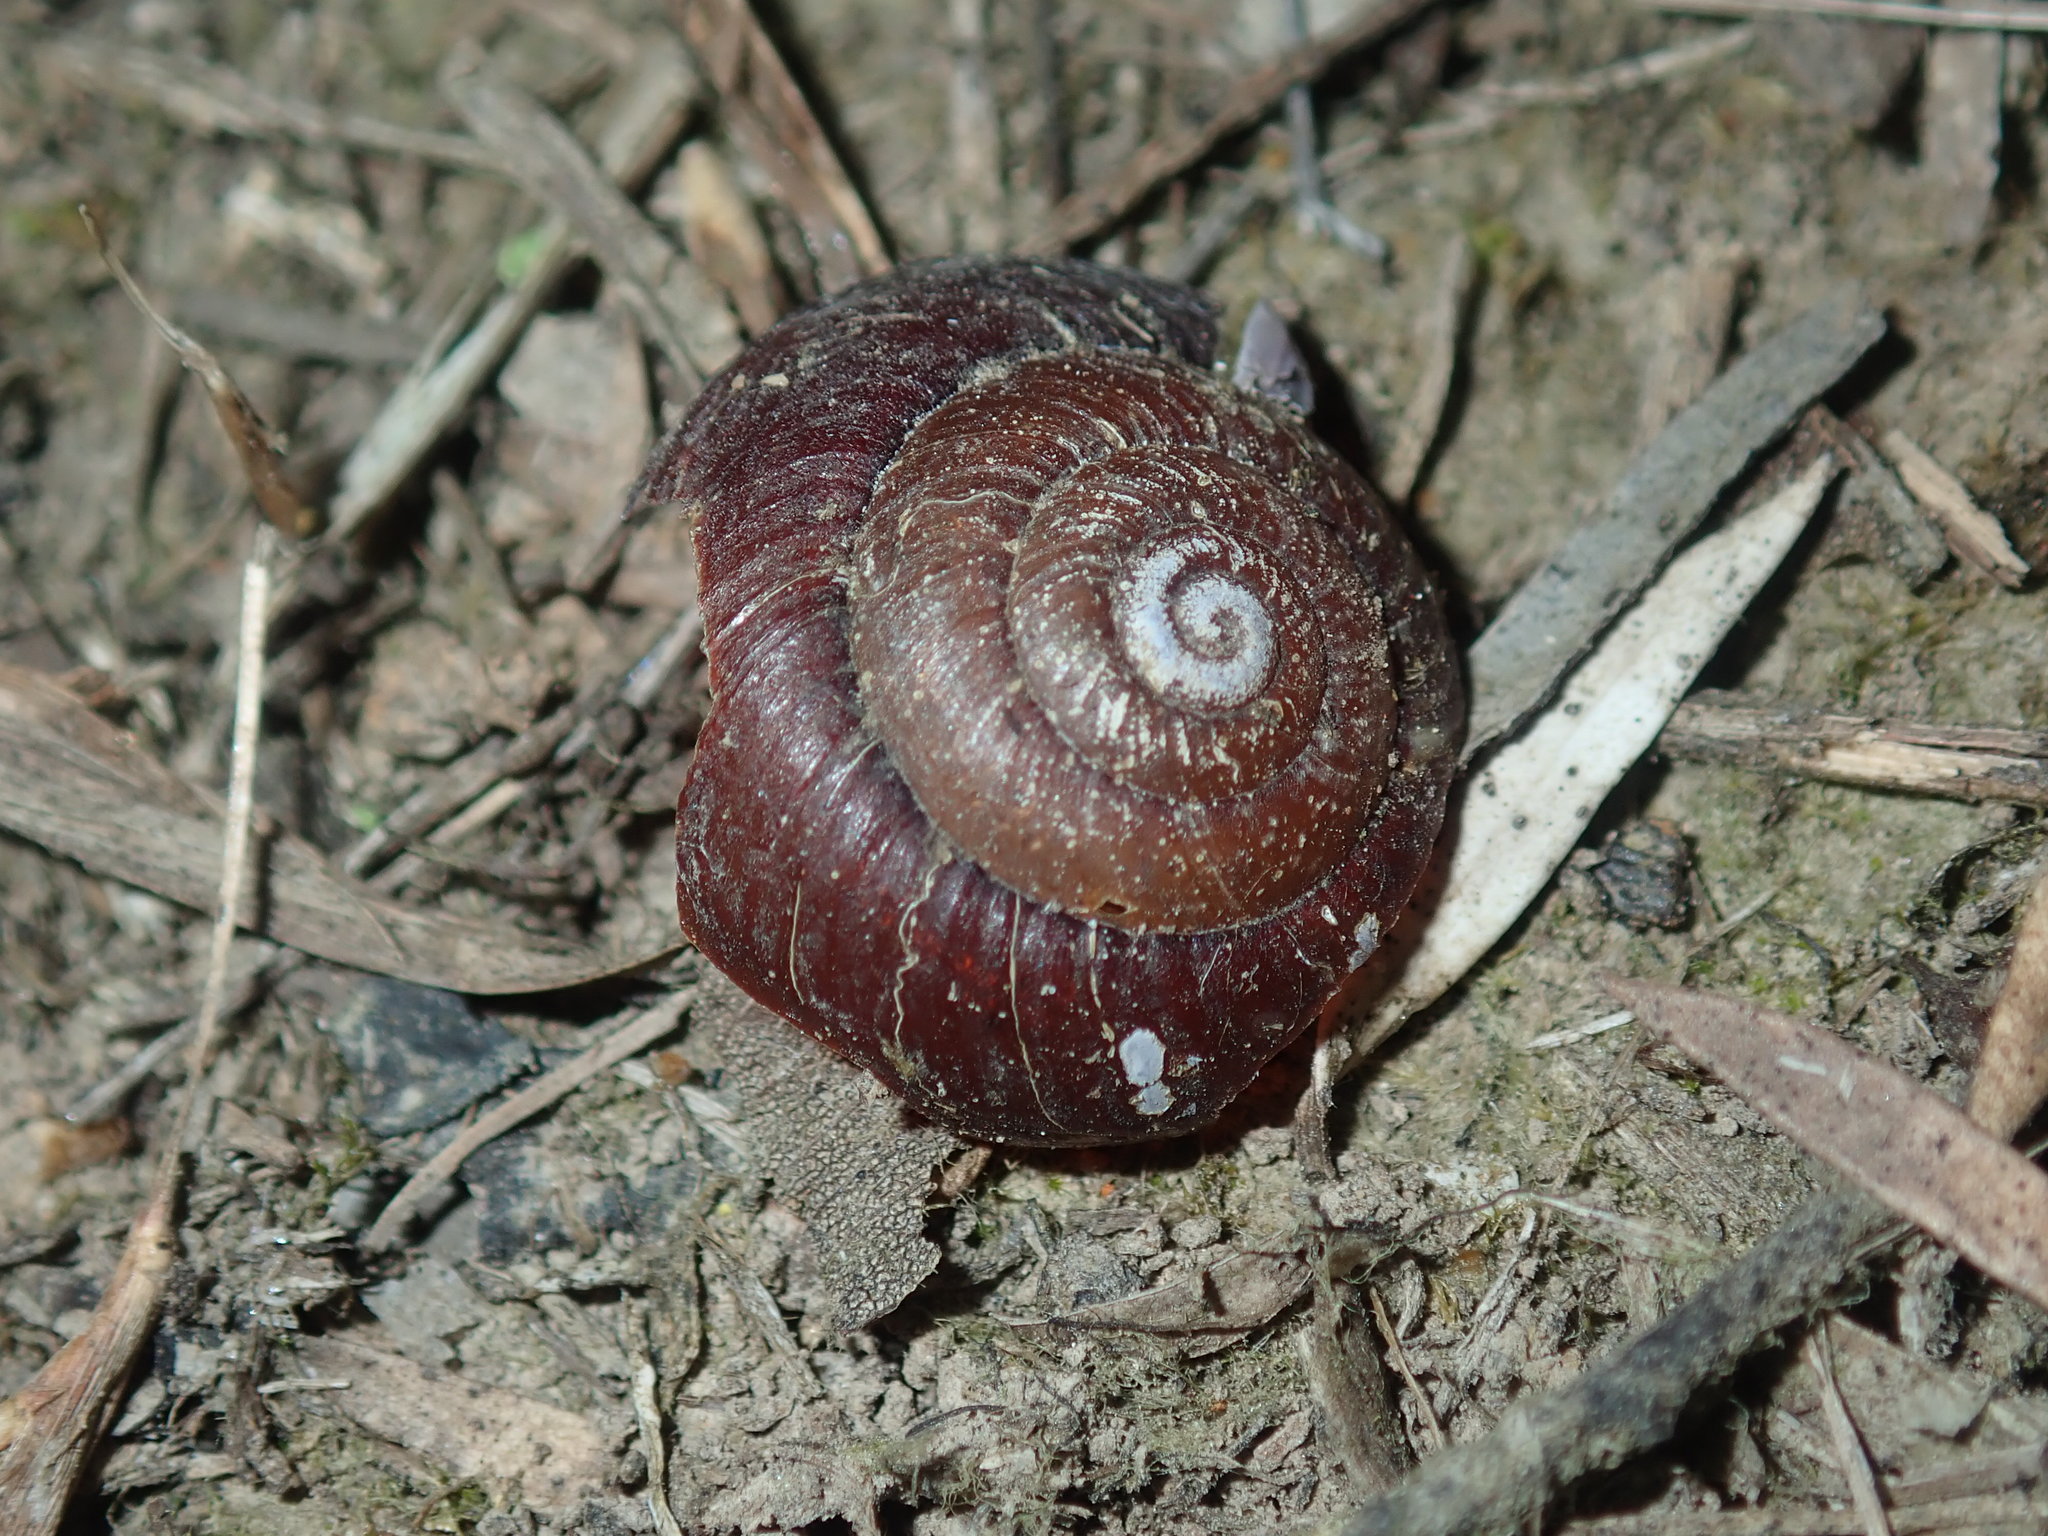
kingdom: Animalia
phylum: Mollusca
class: Gastropoda
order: Stylommatophora
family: Camaenidae
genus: Sauroconcha
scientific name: Sauroconcha sheai
